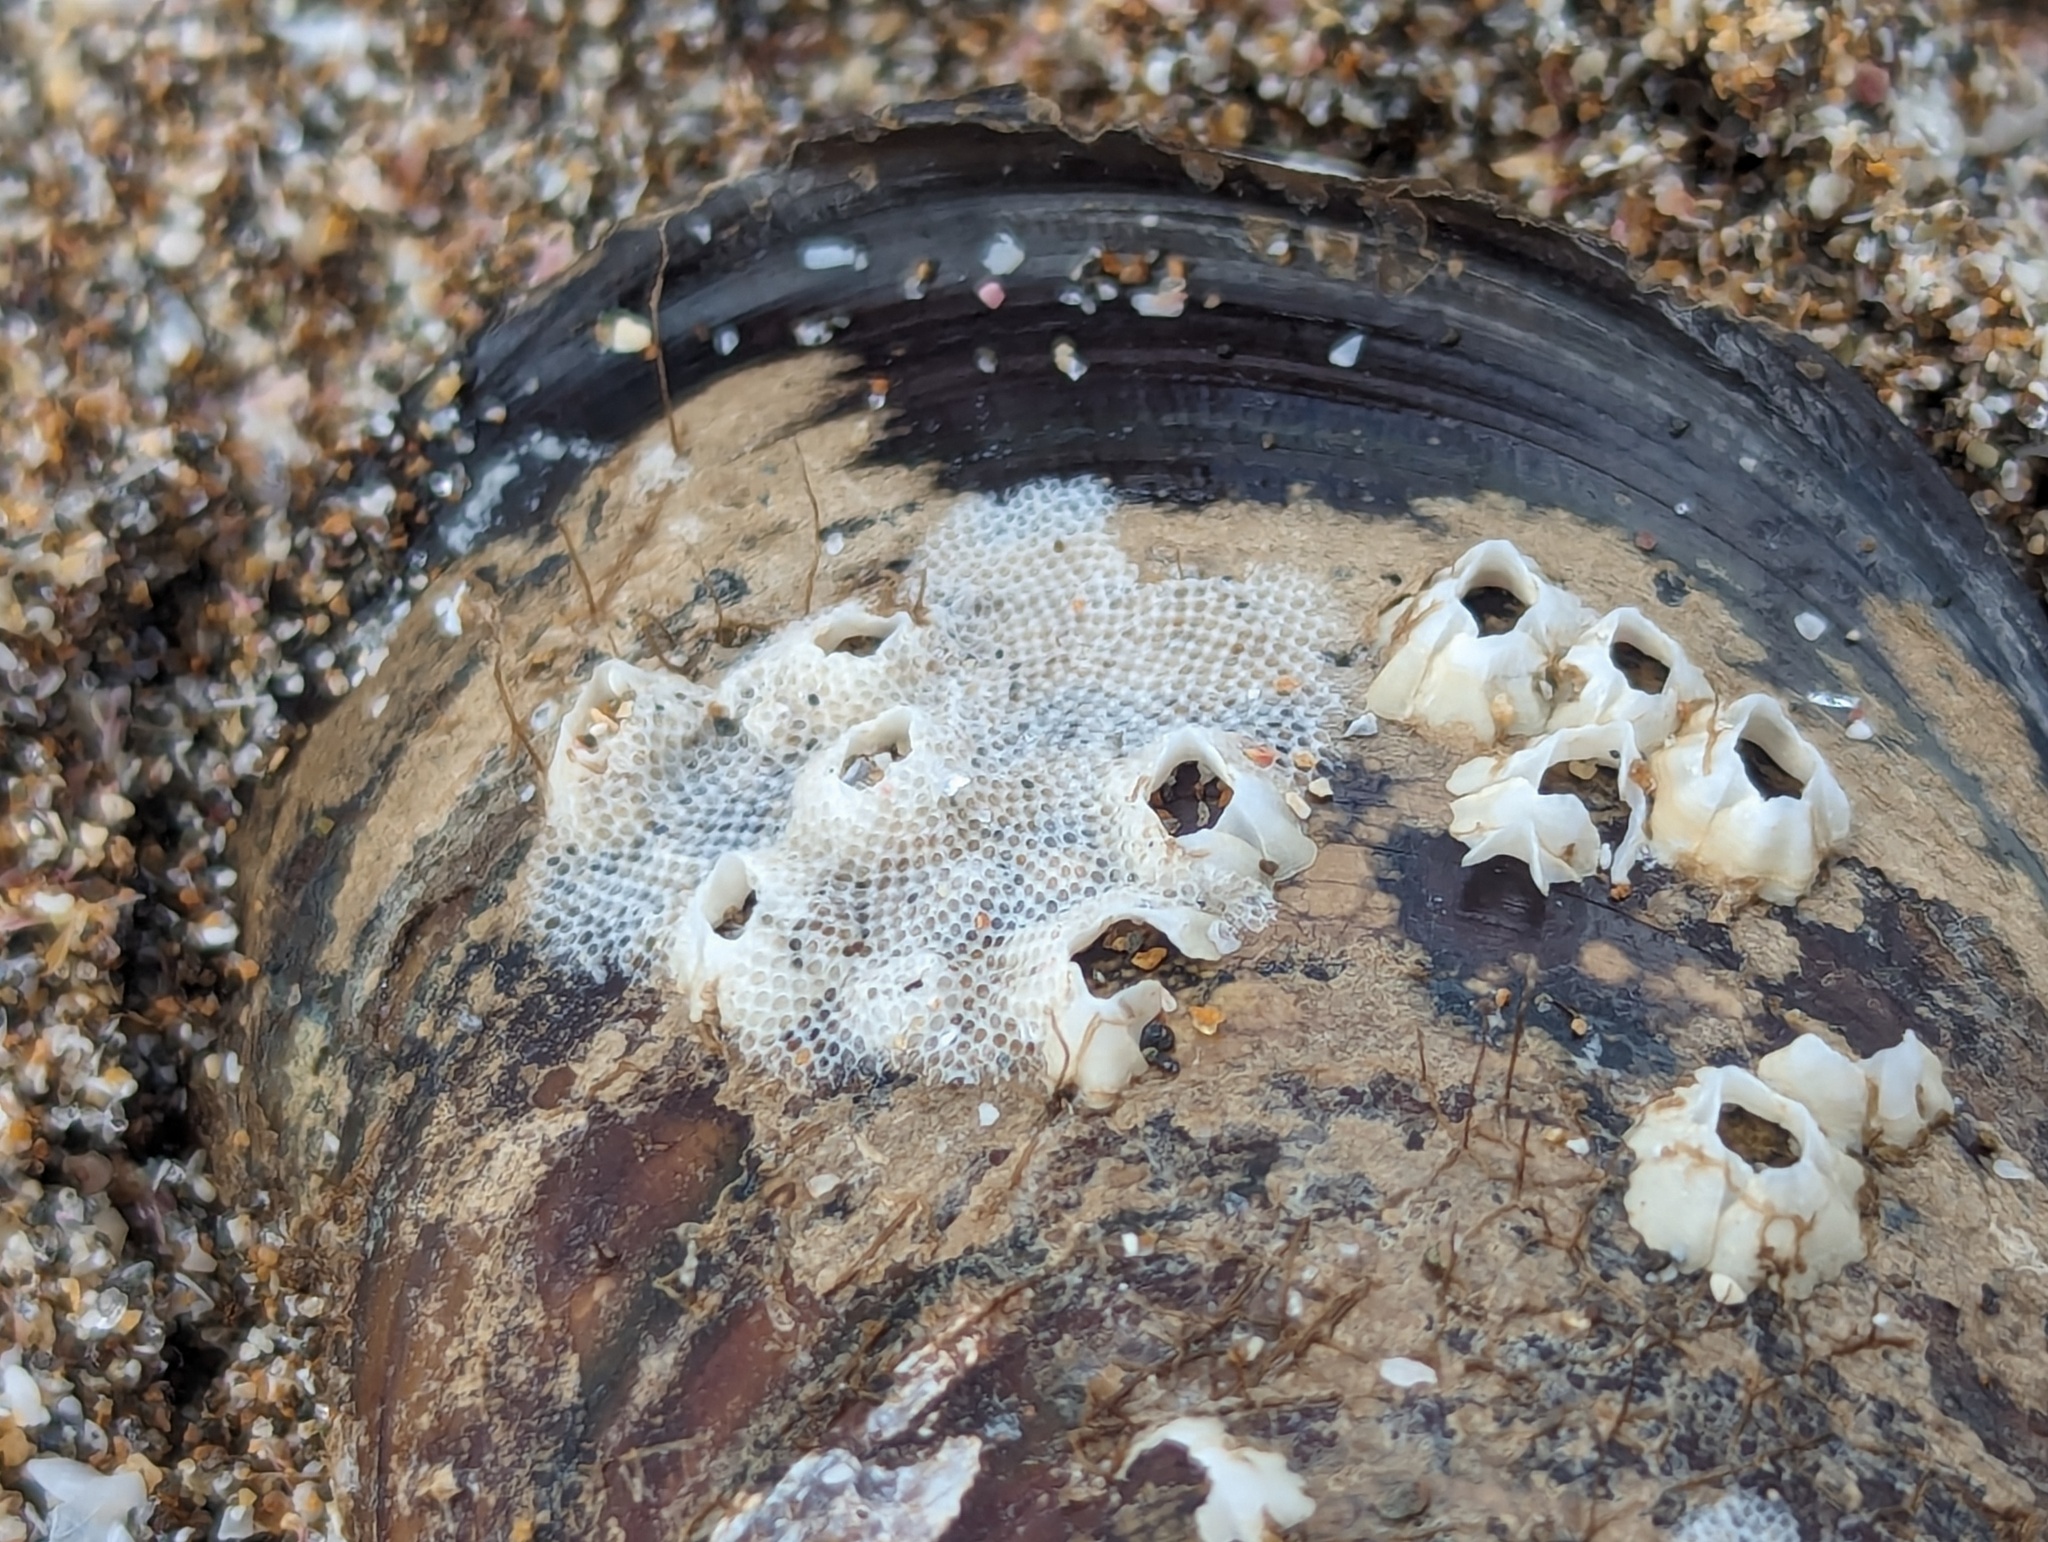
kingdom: Animalia
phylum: Arthropoda
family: Elminiidae
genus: Austrominius
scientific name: Austrominius modestus
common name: Australasian barnacle
